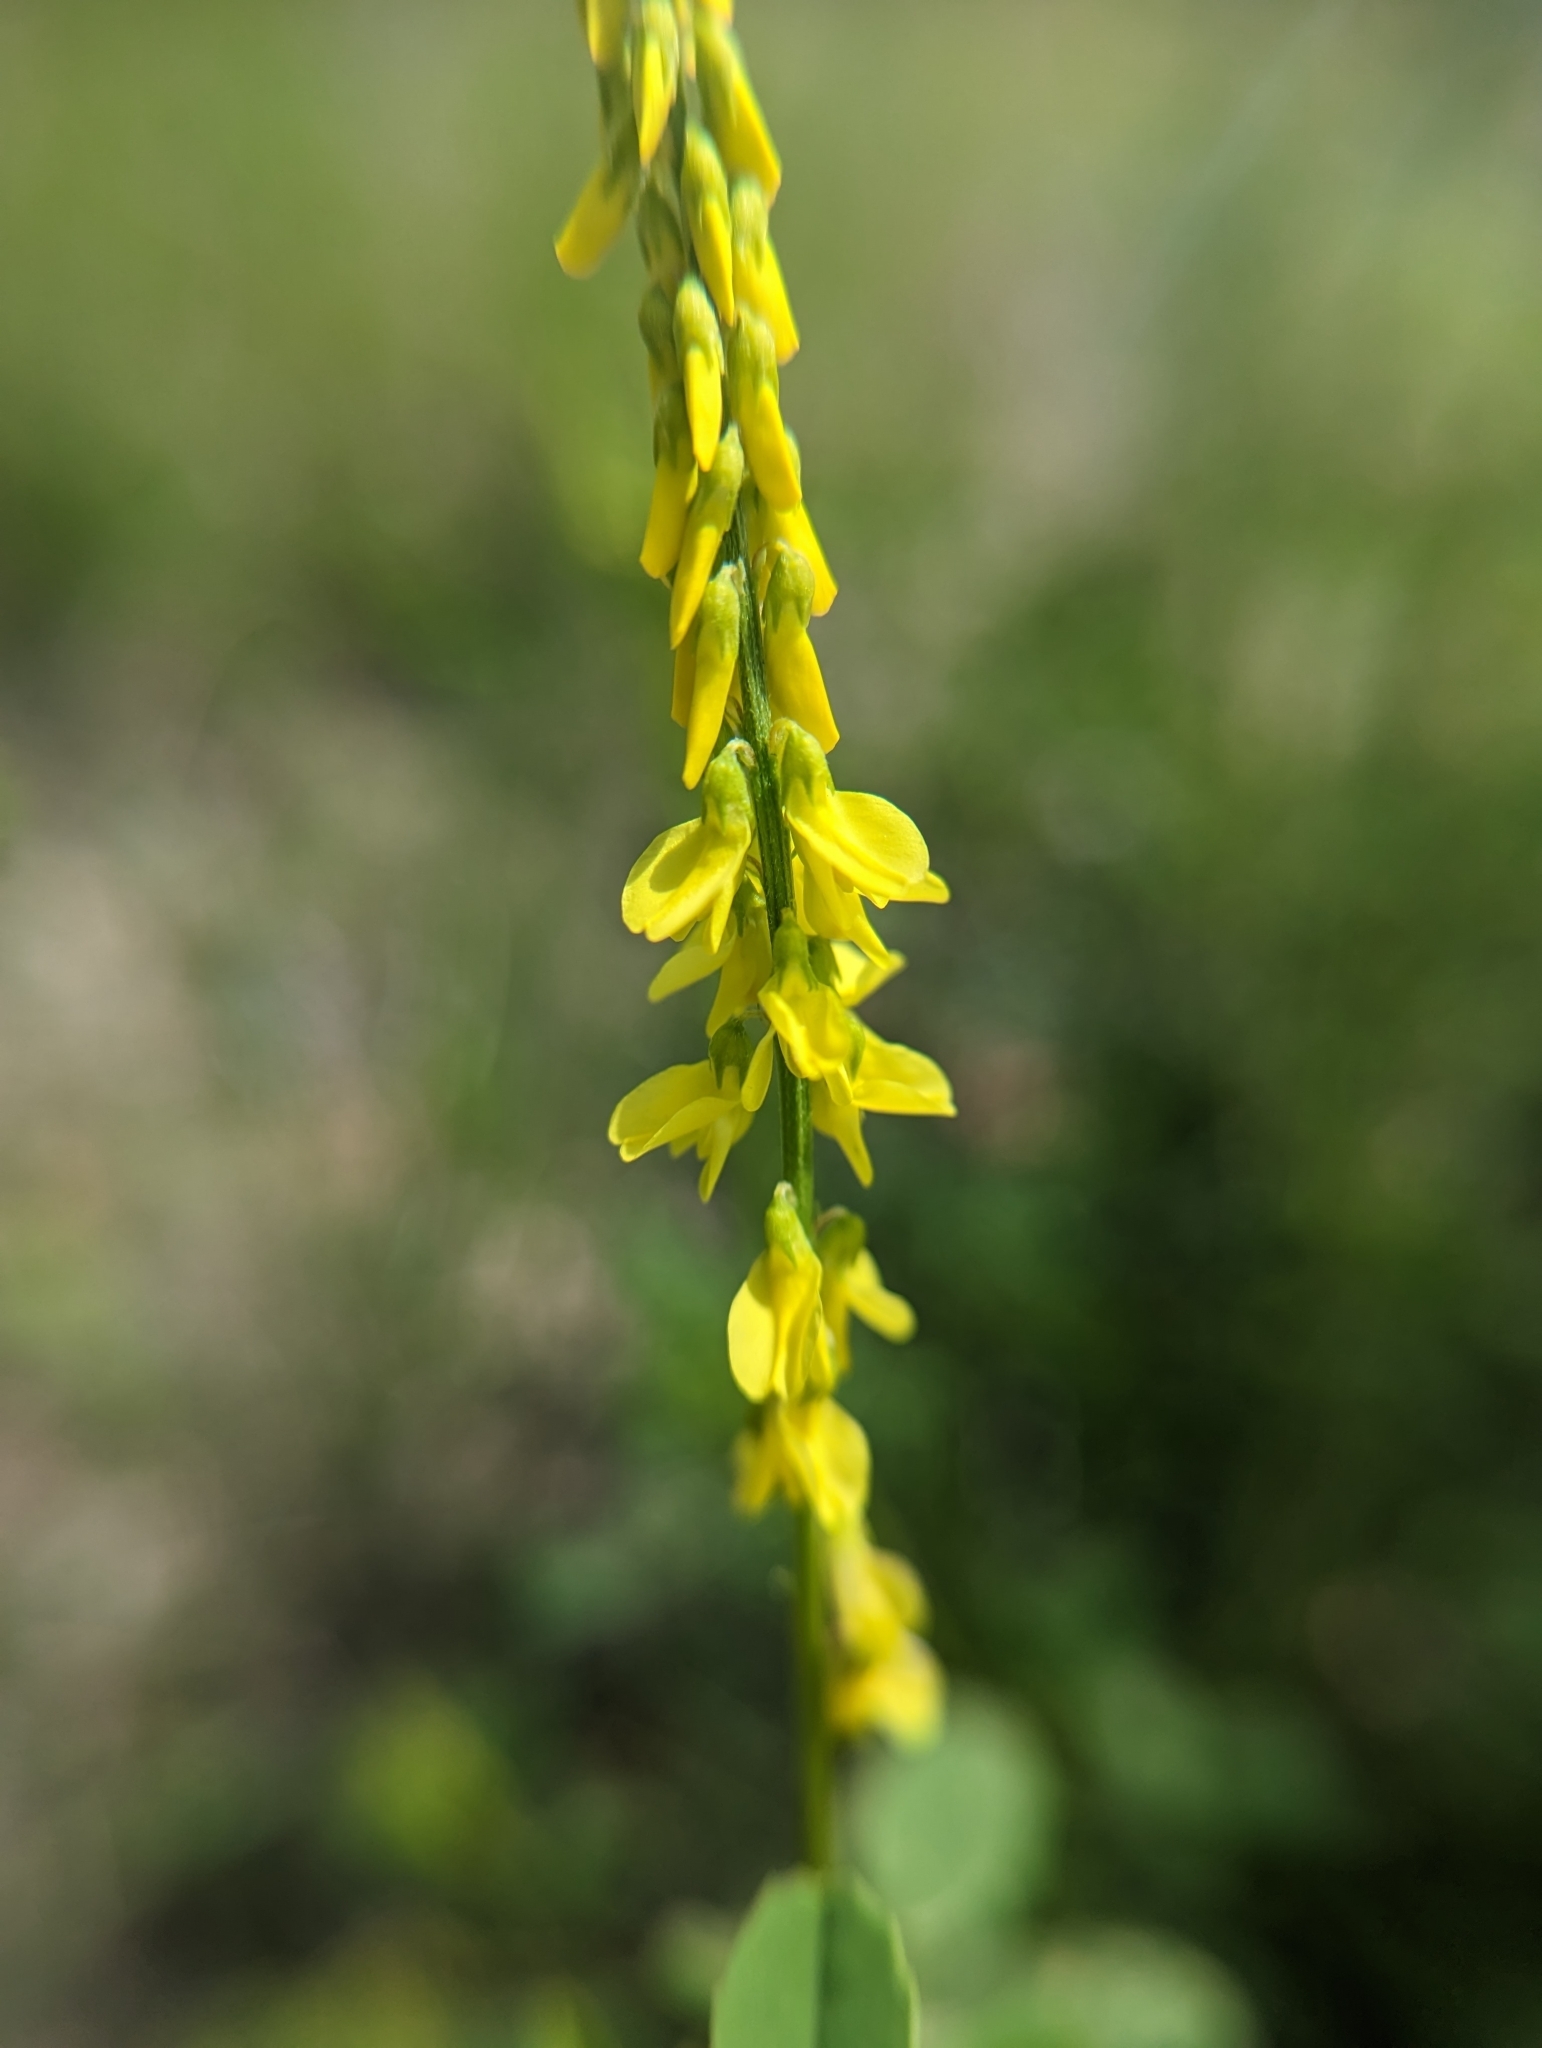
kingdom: Plantae
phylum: Tracheophyta
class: Magnoliopsida
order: Fabales
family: Fabaceae
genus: Melilotus
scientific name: Melilotus officinalis
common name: Sweetclover
